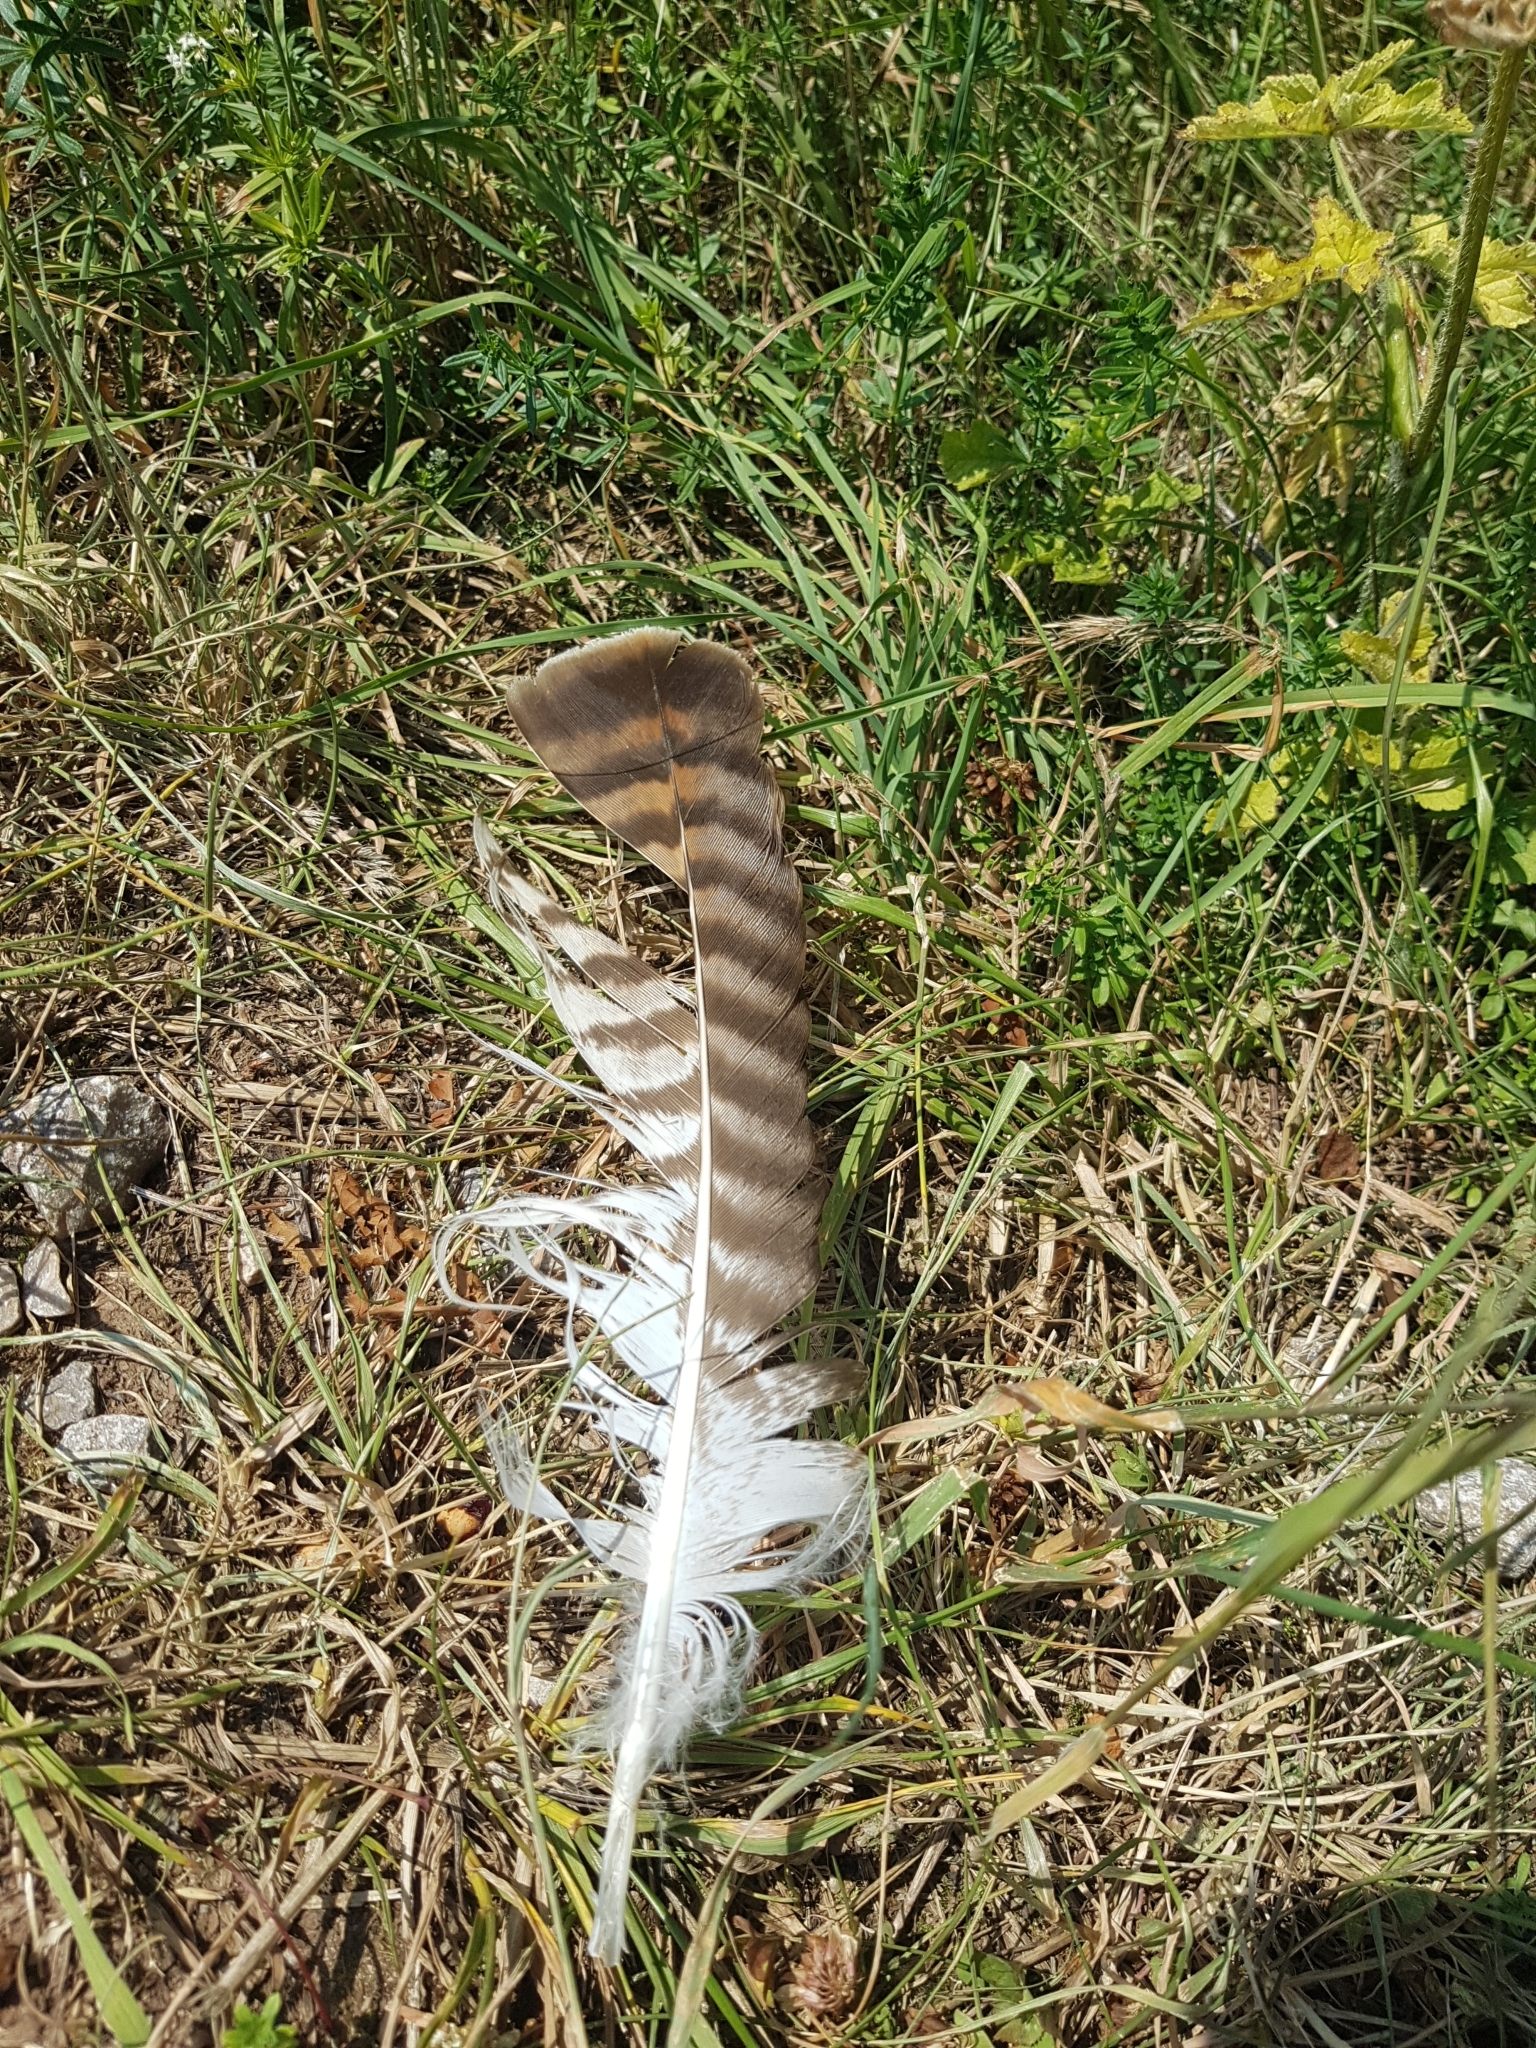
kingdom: Animalia
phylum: Chordata
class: Aves
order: Accipitriformes
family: Accipitridae
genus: Buteo
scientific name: Buteo buteo
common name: Common buzzard
